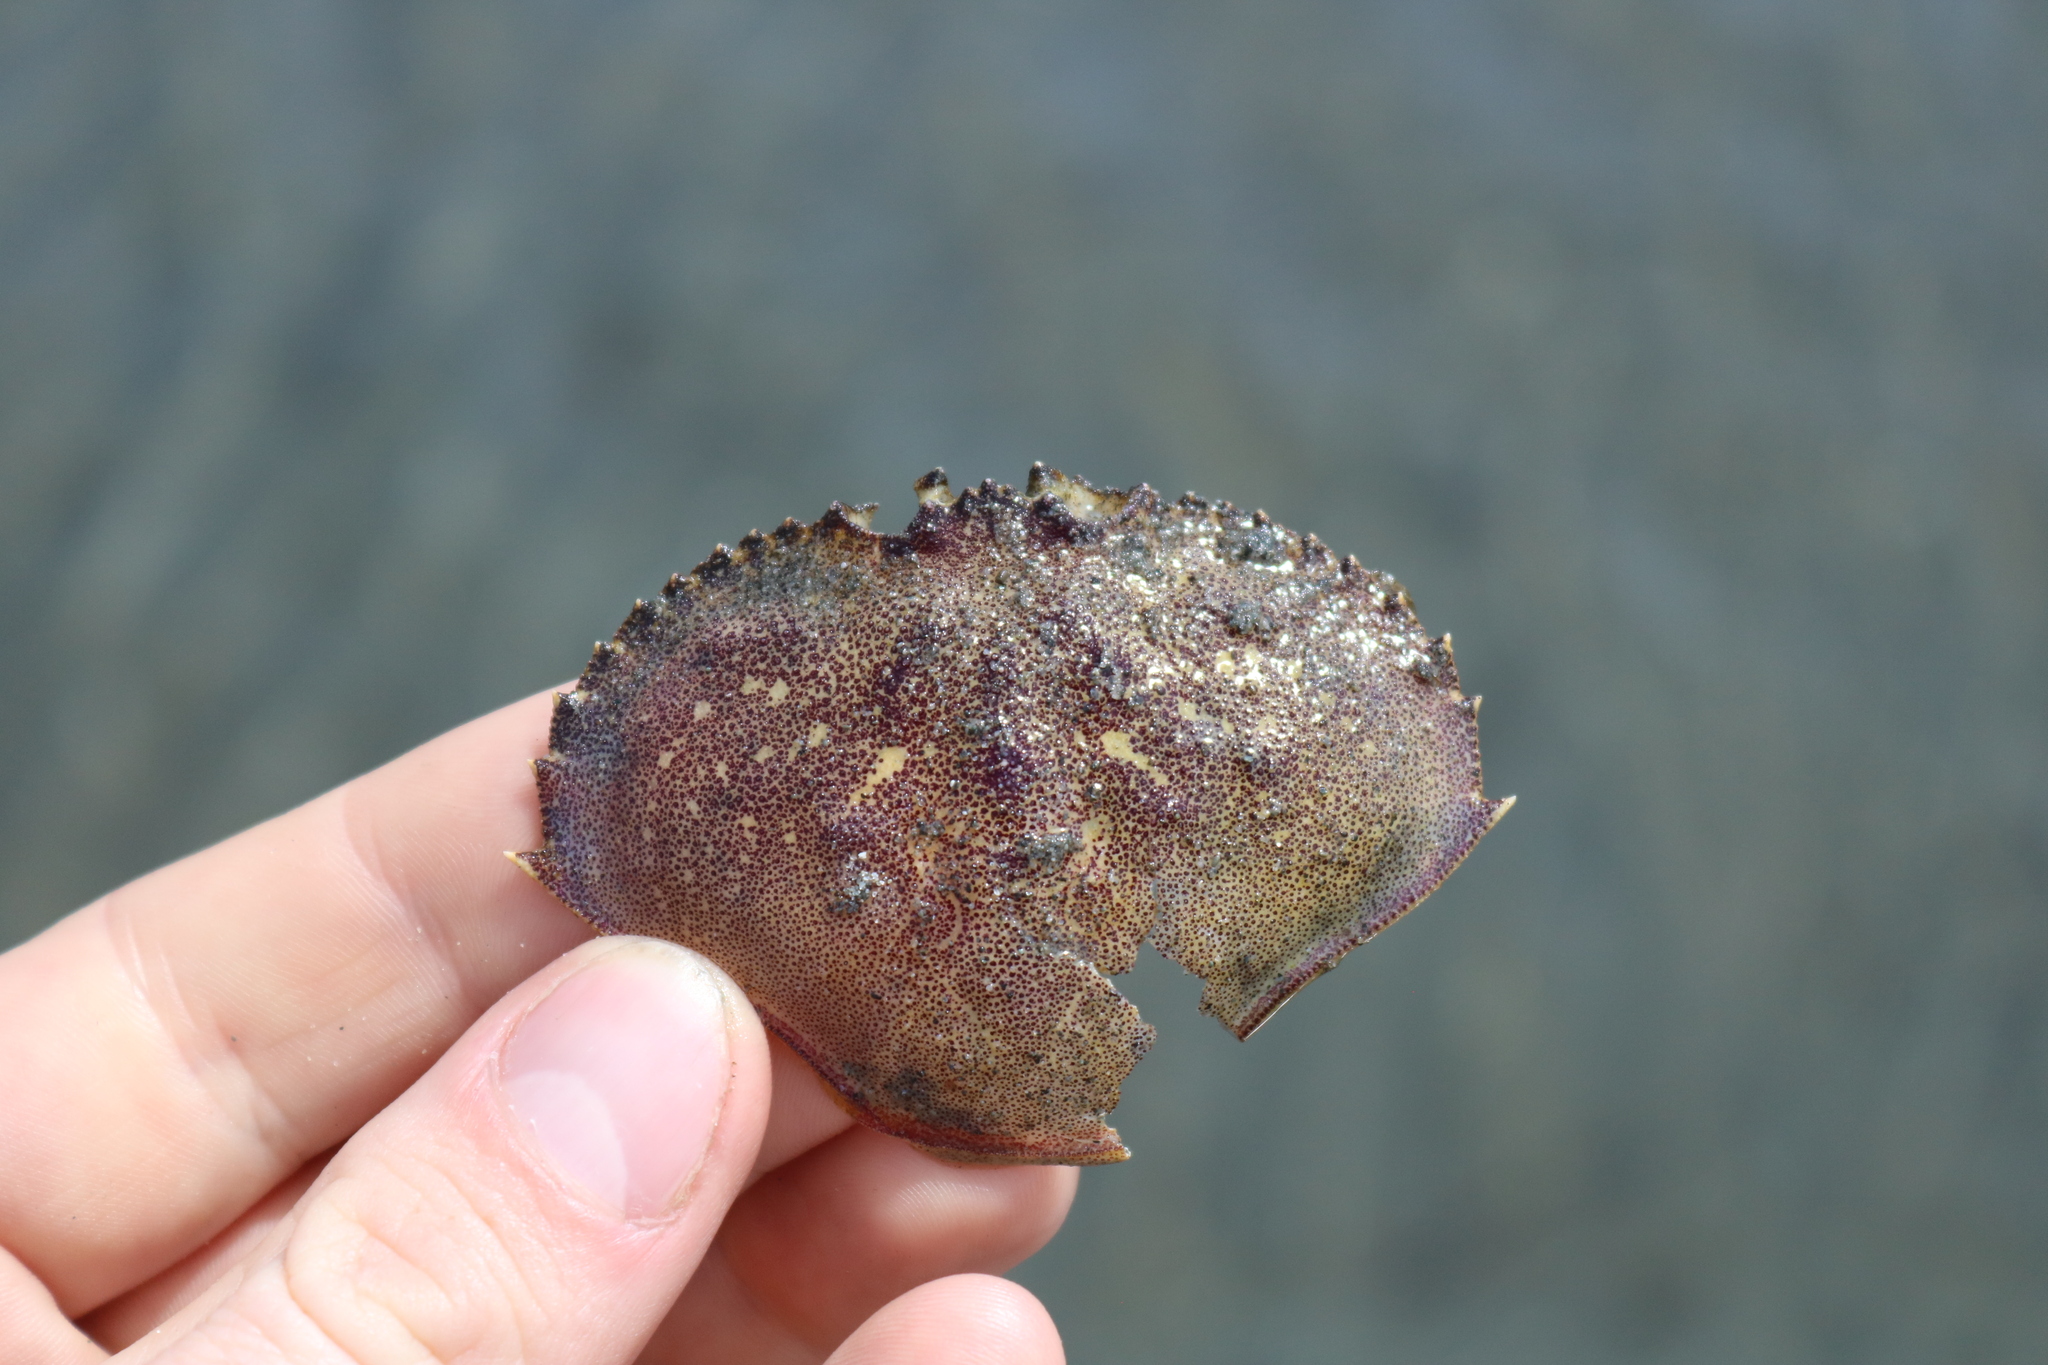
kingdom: Animalia
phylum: Arthropoda
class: Malacostraca
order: Decapoda
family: Cancridae
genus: Metacarcinus
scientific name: Metacarcinus magister
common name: Californian crab
